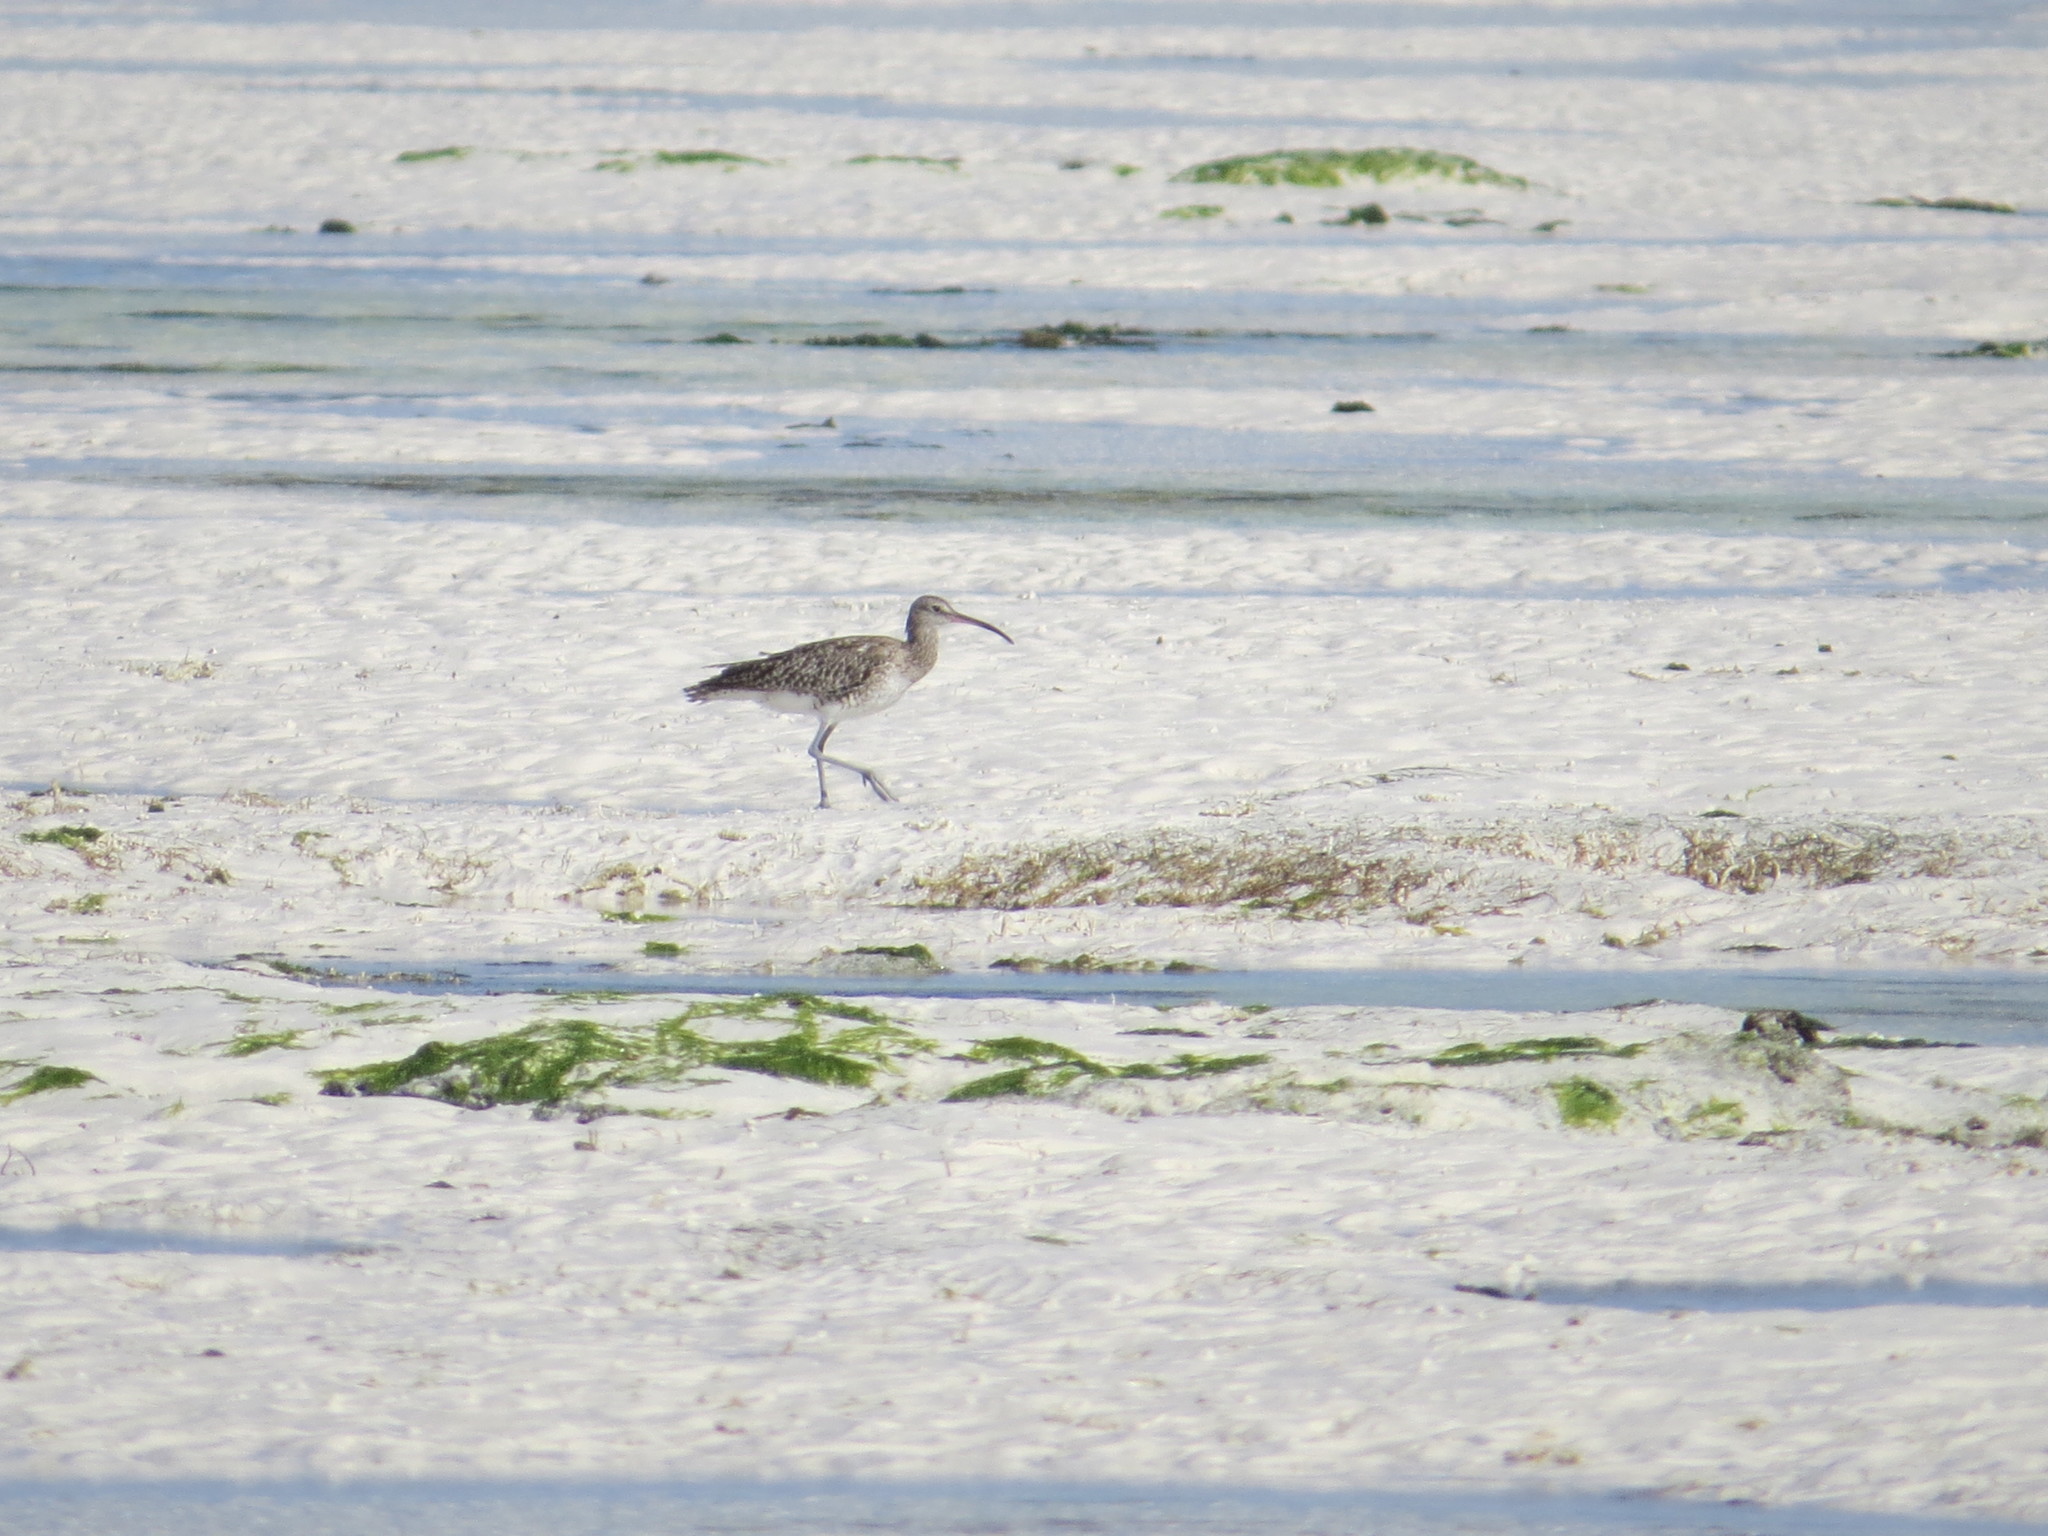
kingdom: Animalia
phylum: Chordata
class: Aves
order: Charadriiformes
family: Scolopacidae
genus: Numenius
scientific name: Numenius phaeopus
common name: Whimbrel
